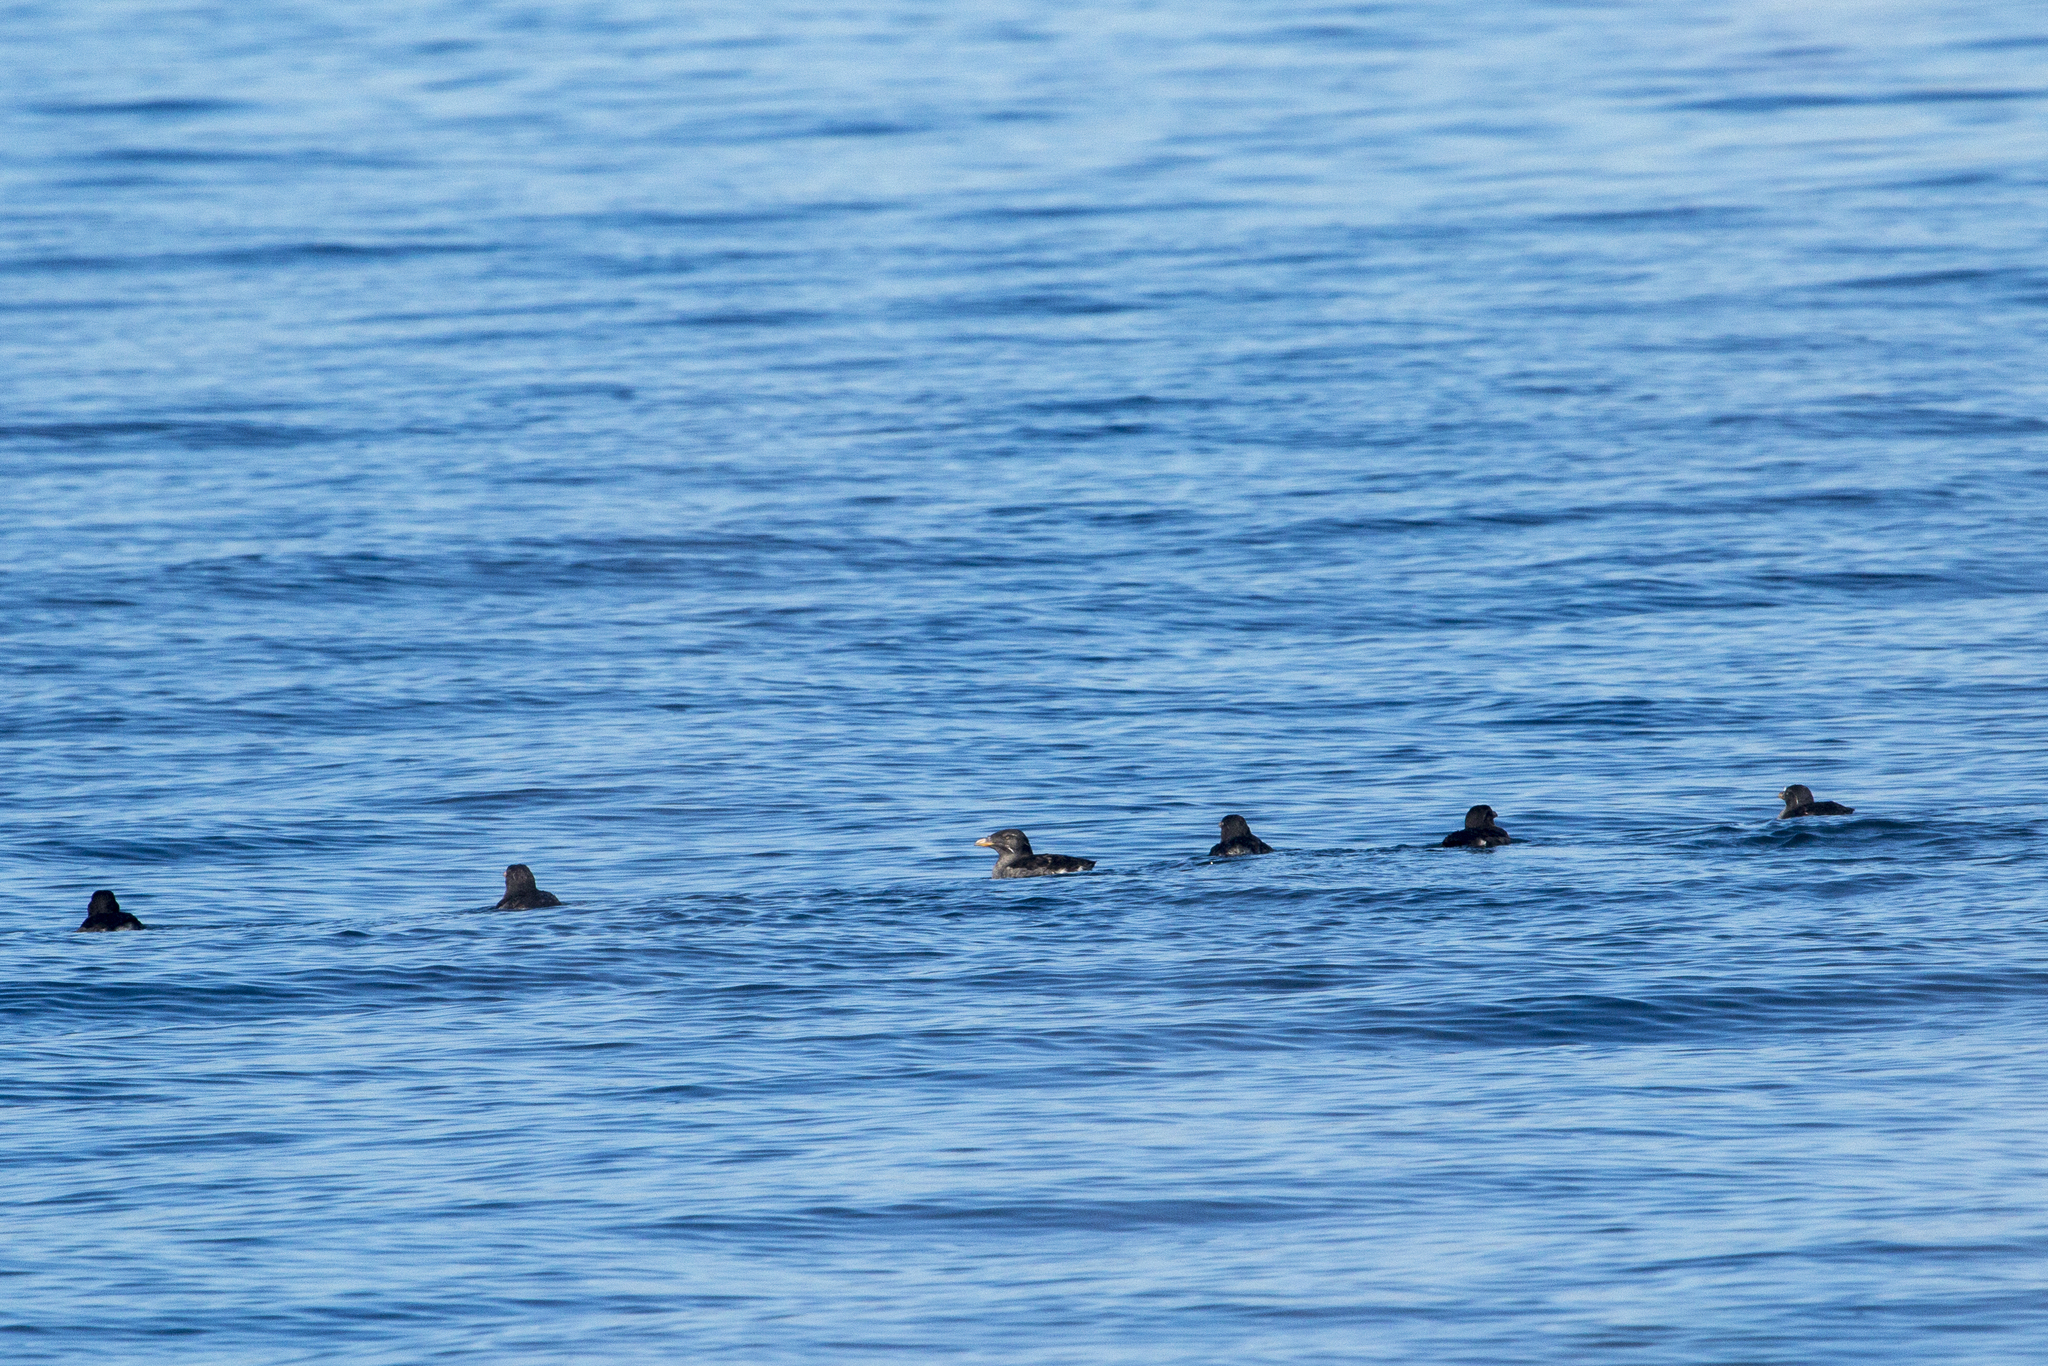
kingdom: Animalia
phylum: Chordata
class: Aves
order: Charadriiformes
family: Alcidae
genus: Cerorhinca
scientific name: Cerorhinca monocerata
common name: Rhinoceros auklet
